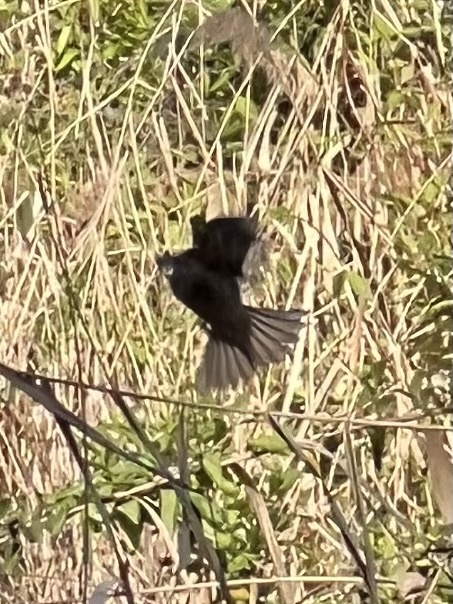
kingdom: Animalia
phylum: Chordata
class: Aves
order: Passeriformes
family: Emberizidae
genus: Emberiza
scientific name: Emberiza calandra
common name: Corn bunting
